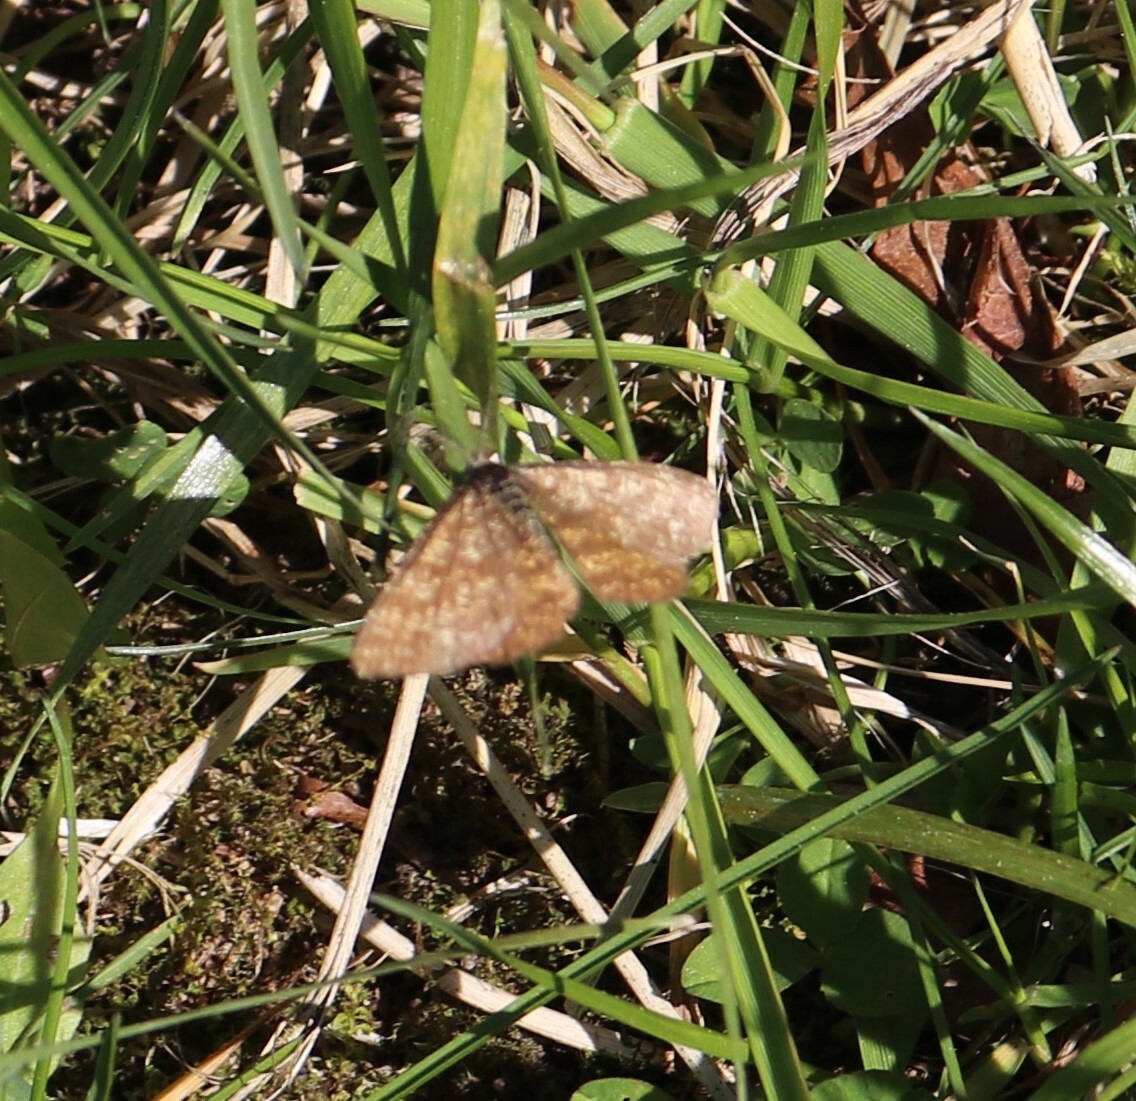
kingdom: Animalia
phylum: Arthropoda
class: Insecta
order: Lepidoptera
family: Geometridae
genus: Ematurga
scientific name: Ematurga atomaria
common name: Common heath
